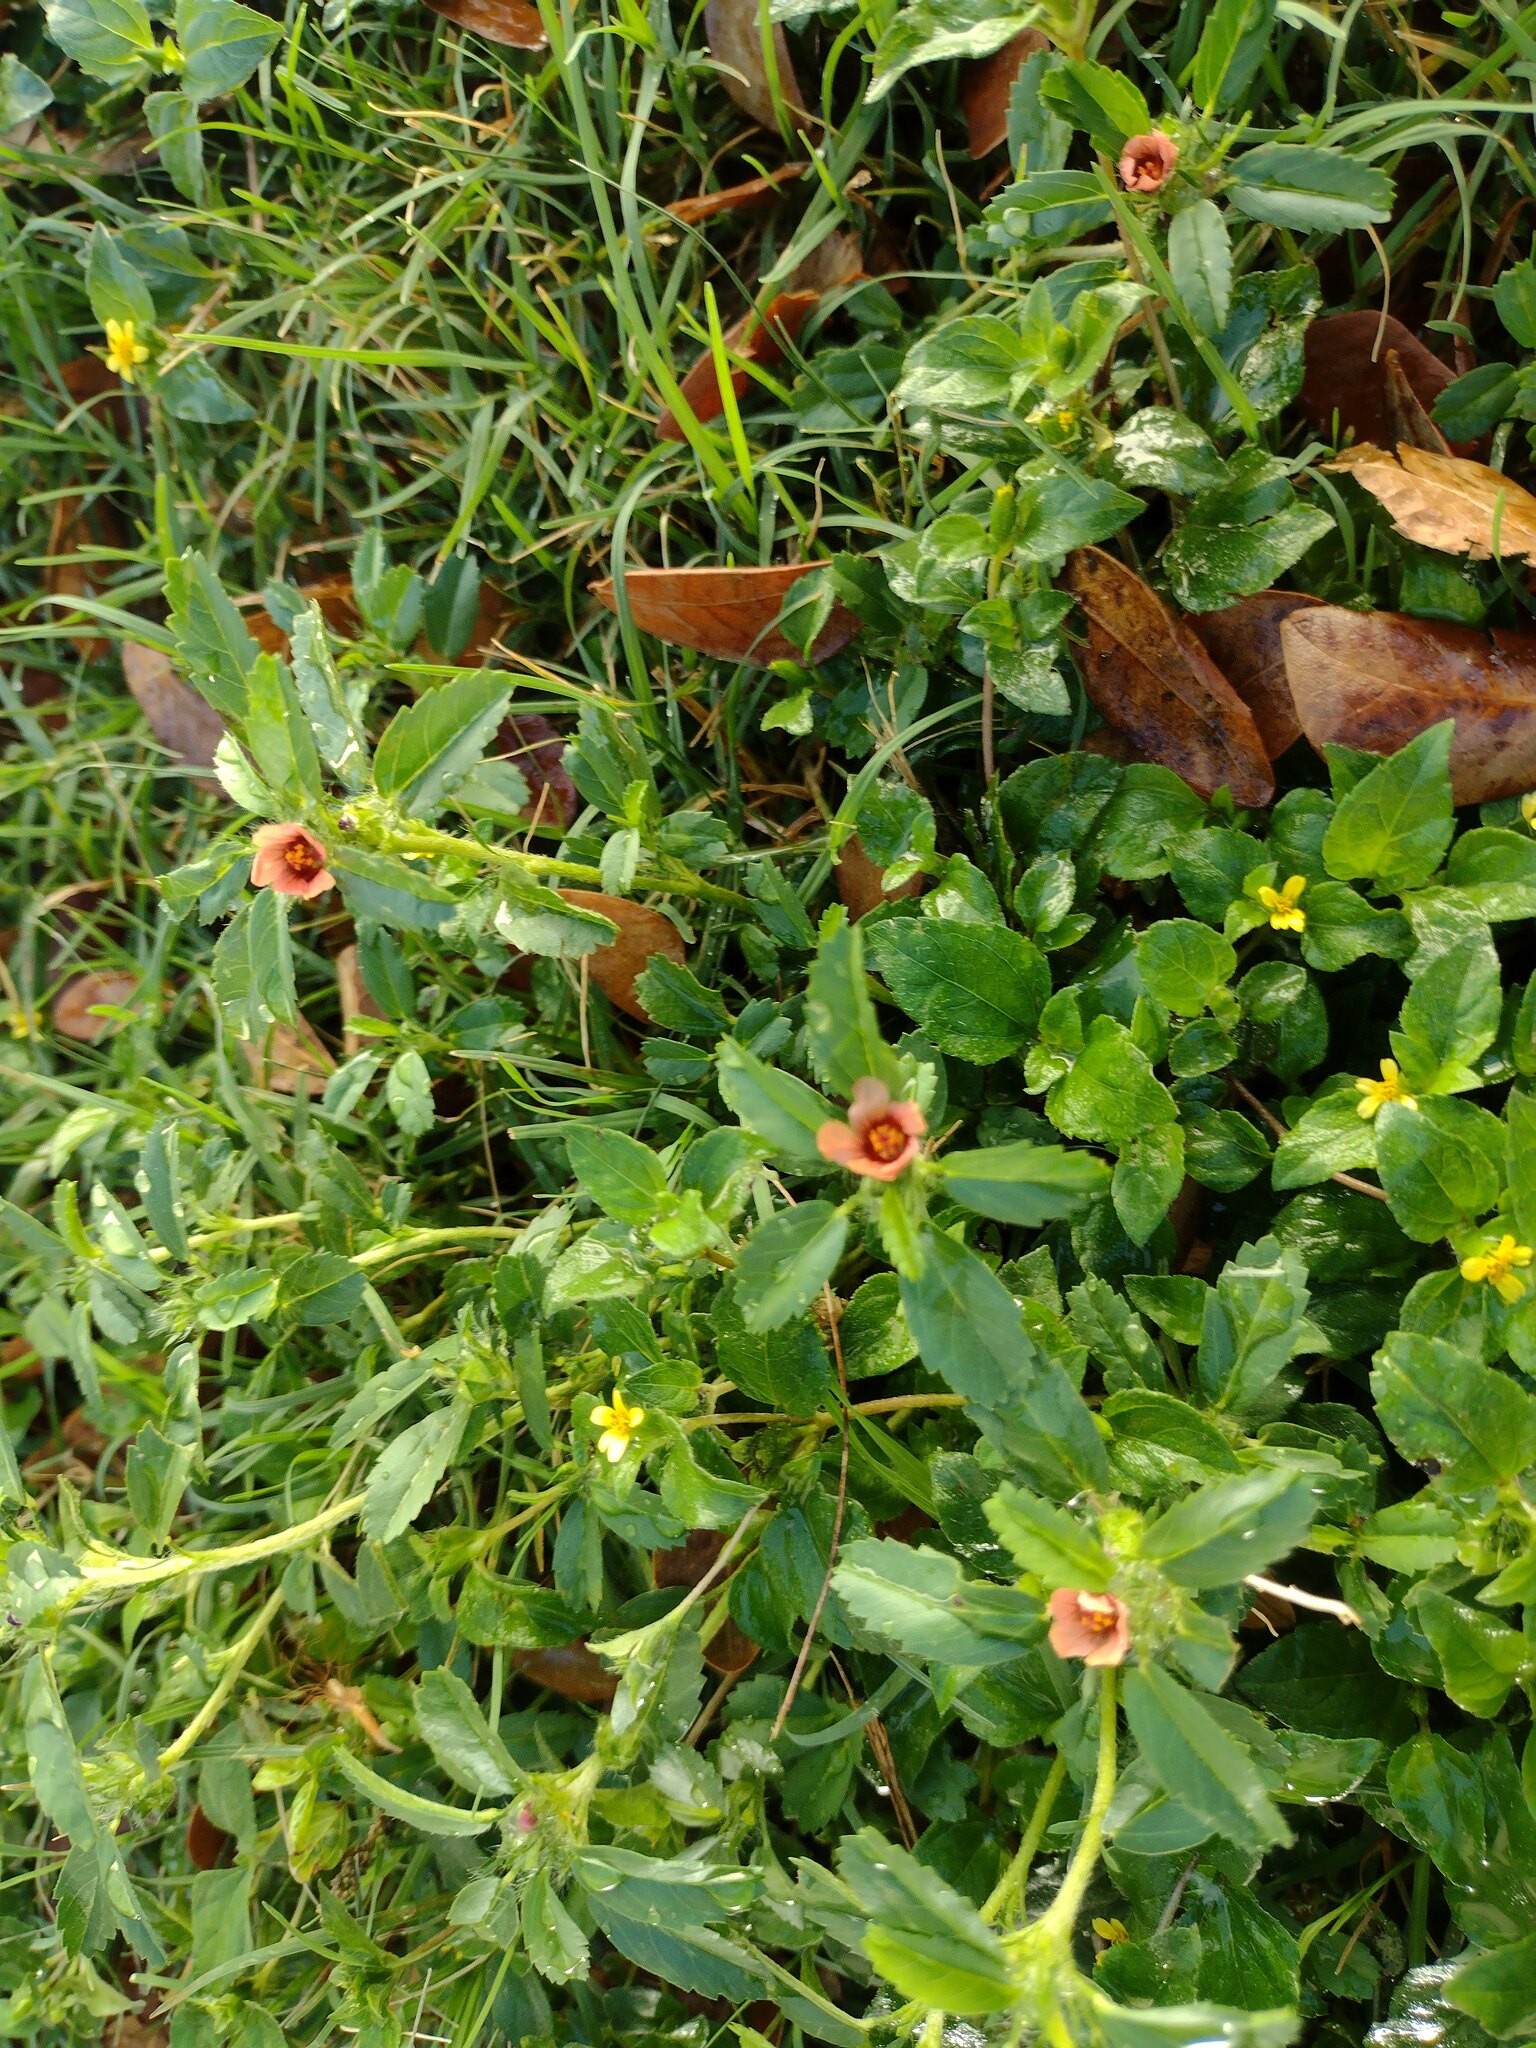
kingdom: Plantae
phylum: Tracheophyta
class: Magnoliopsida
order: Malvales
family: Malvaceae
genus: Sida
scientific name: Sida ciliaris
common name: Bracted fanpetals
